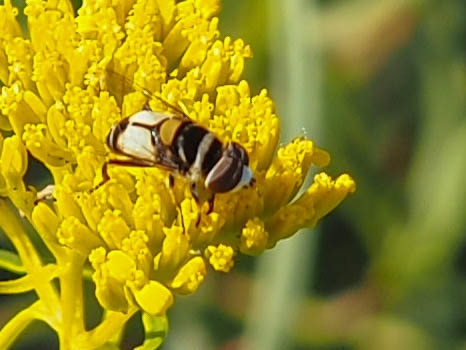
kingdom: Animalia
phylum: Arthropoda
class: Insecta
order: Diptera
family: Syrphidae
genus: Palpada
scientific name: Palpada albifrons
